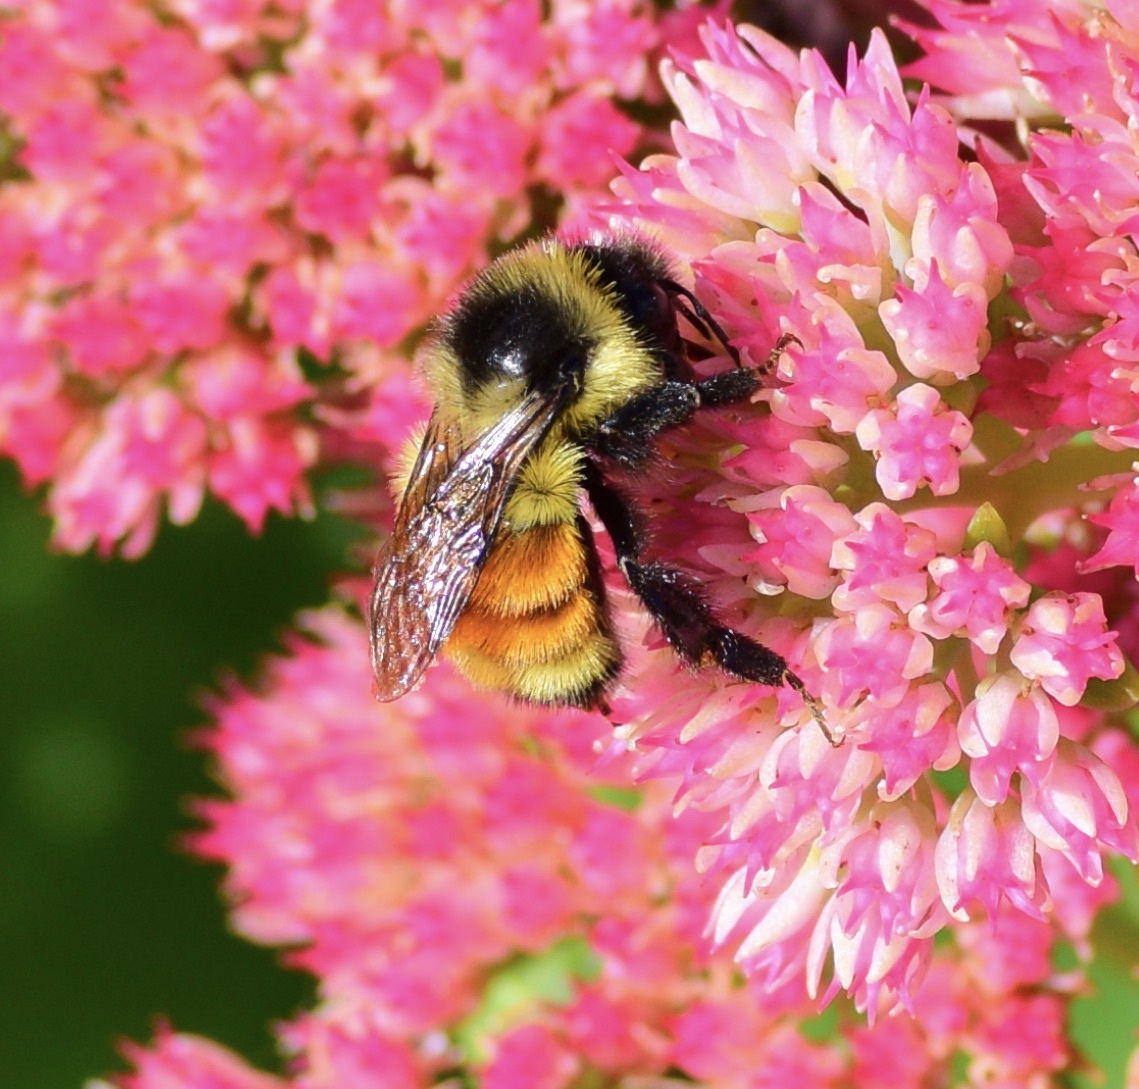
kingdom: Animalia
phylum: Arthropoda
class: Insecta
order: Hymenoptera
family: Apidae
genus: Bombus
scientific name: Bombus ternarius
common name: Tri-colored bumble bee
